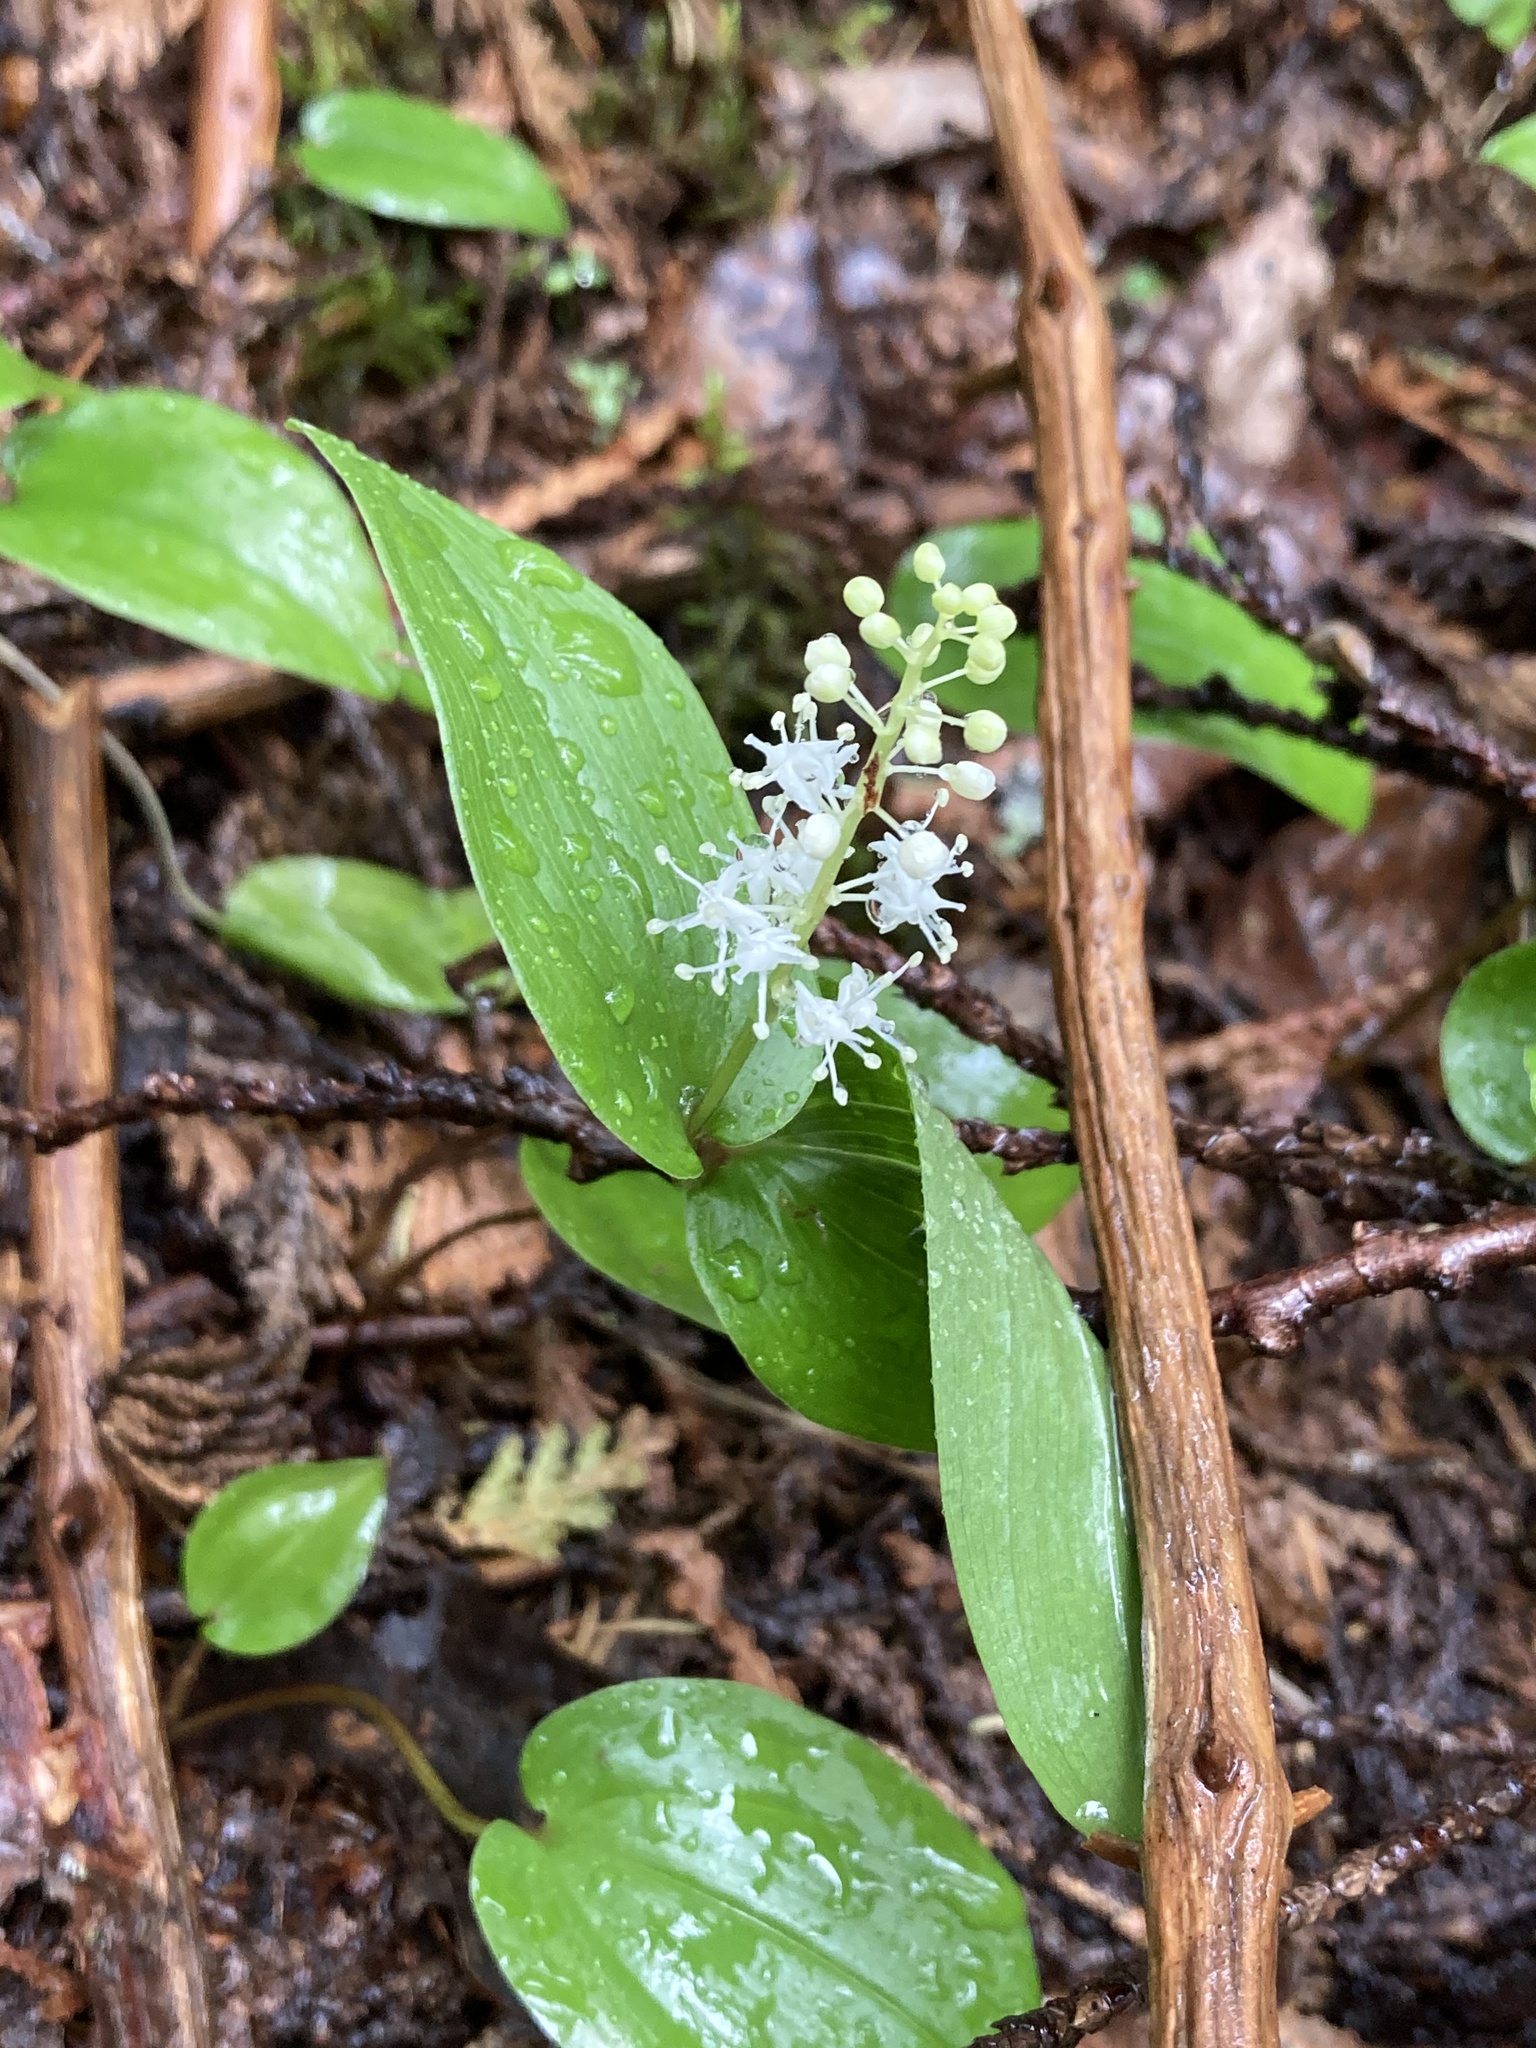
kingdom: Plantae
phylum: Tracheophyta
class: Liliopsida
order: Asparagales
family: Asparagaceae
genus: Maianthemum
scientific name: Maianthemum canadense
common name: False lily-of-the-valley
